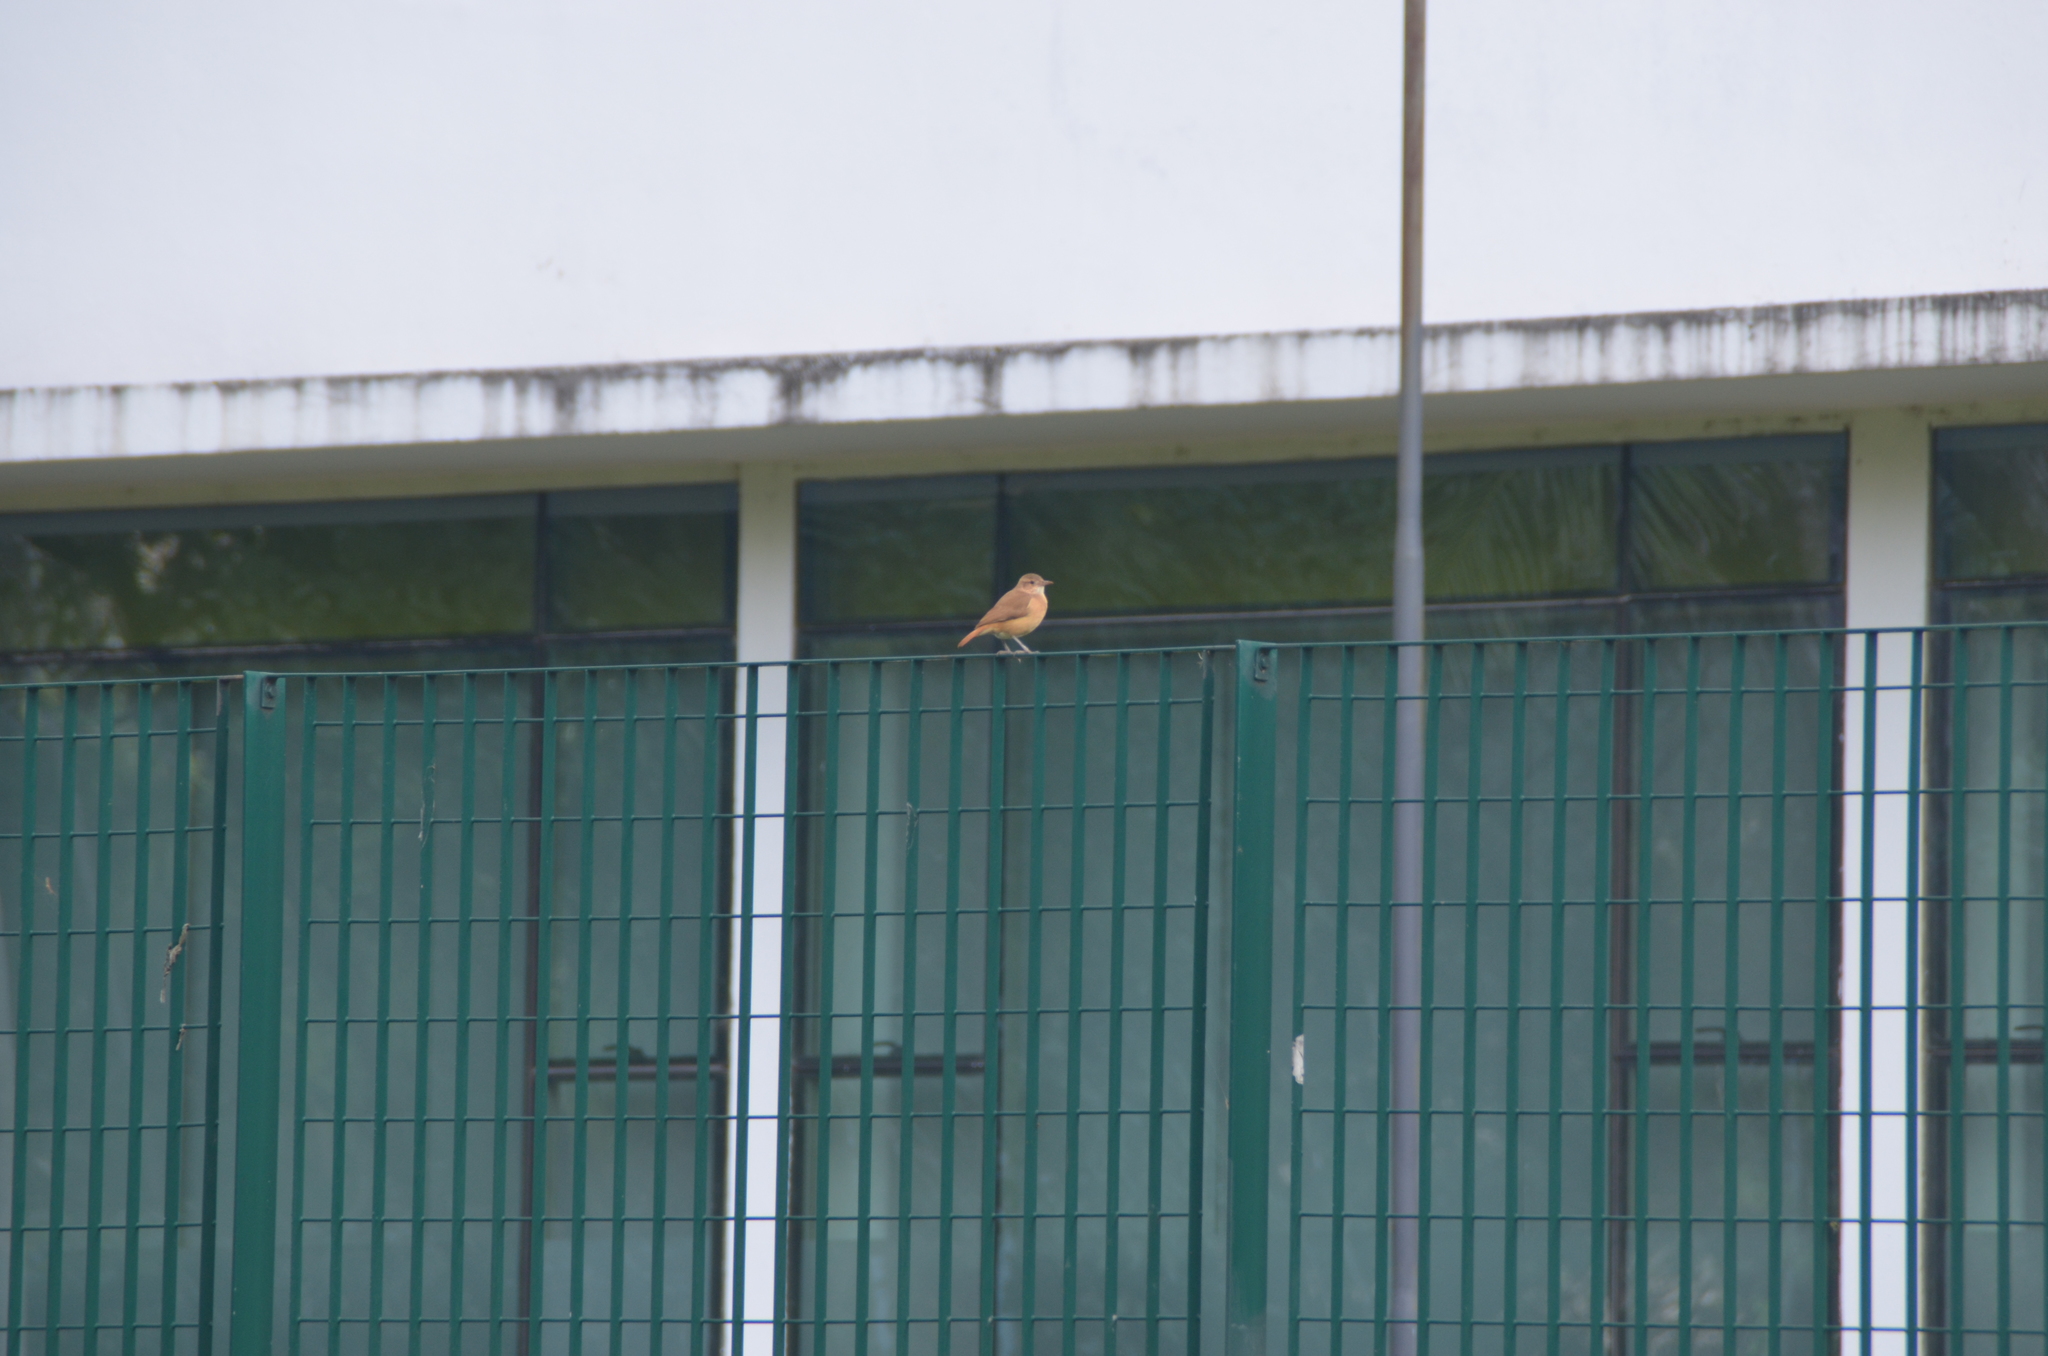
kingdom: Animalia
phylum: Chordata
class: Aves
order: Passeriformes
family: Furnariidae
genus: Furnarius
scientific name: Furnarius rufus
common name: Rufous hornero
